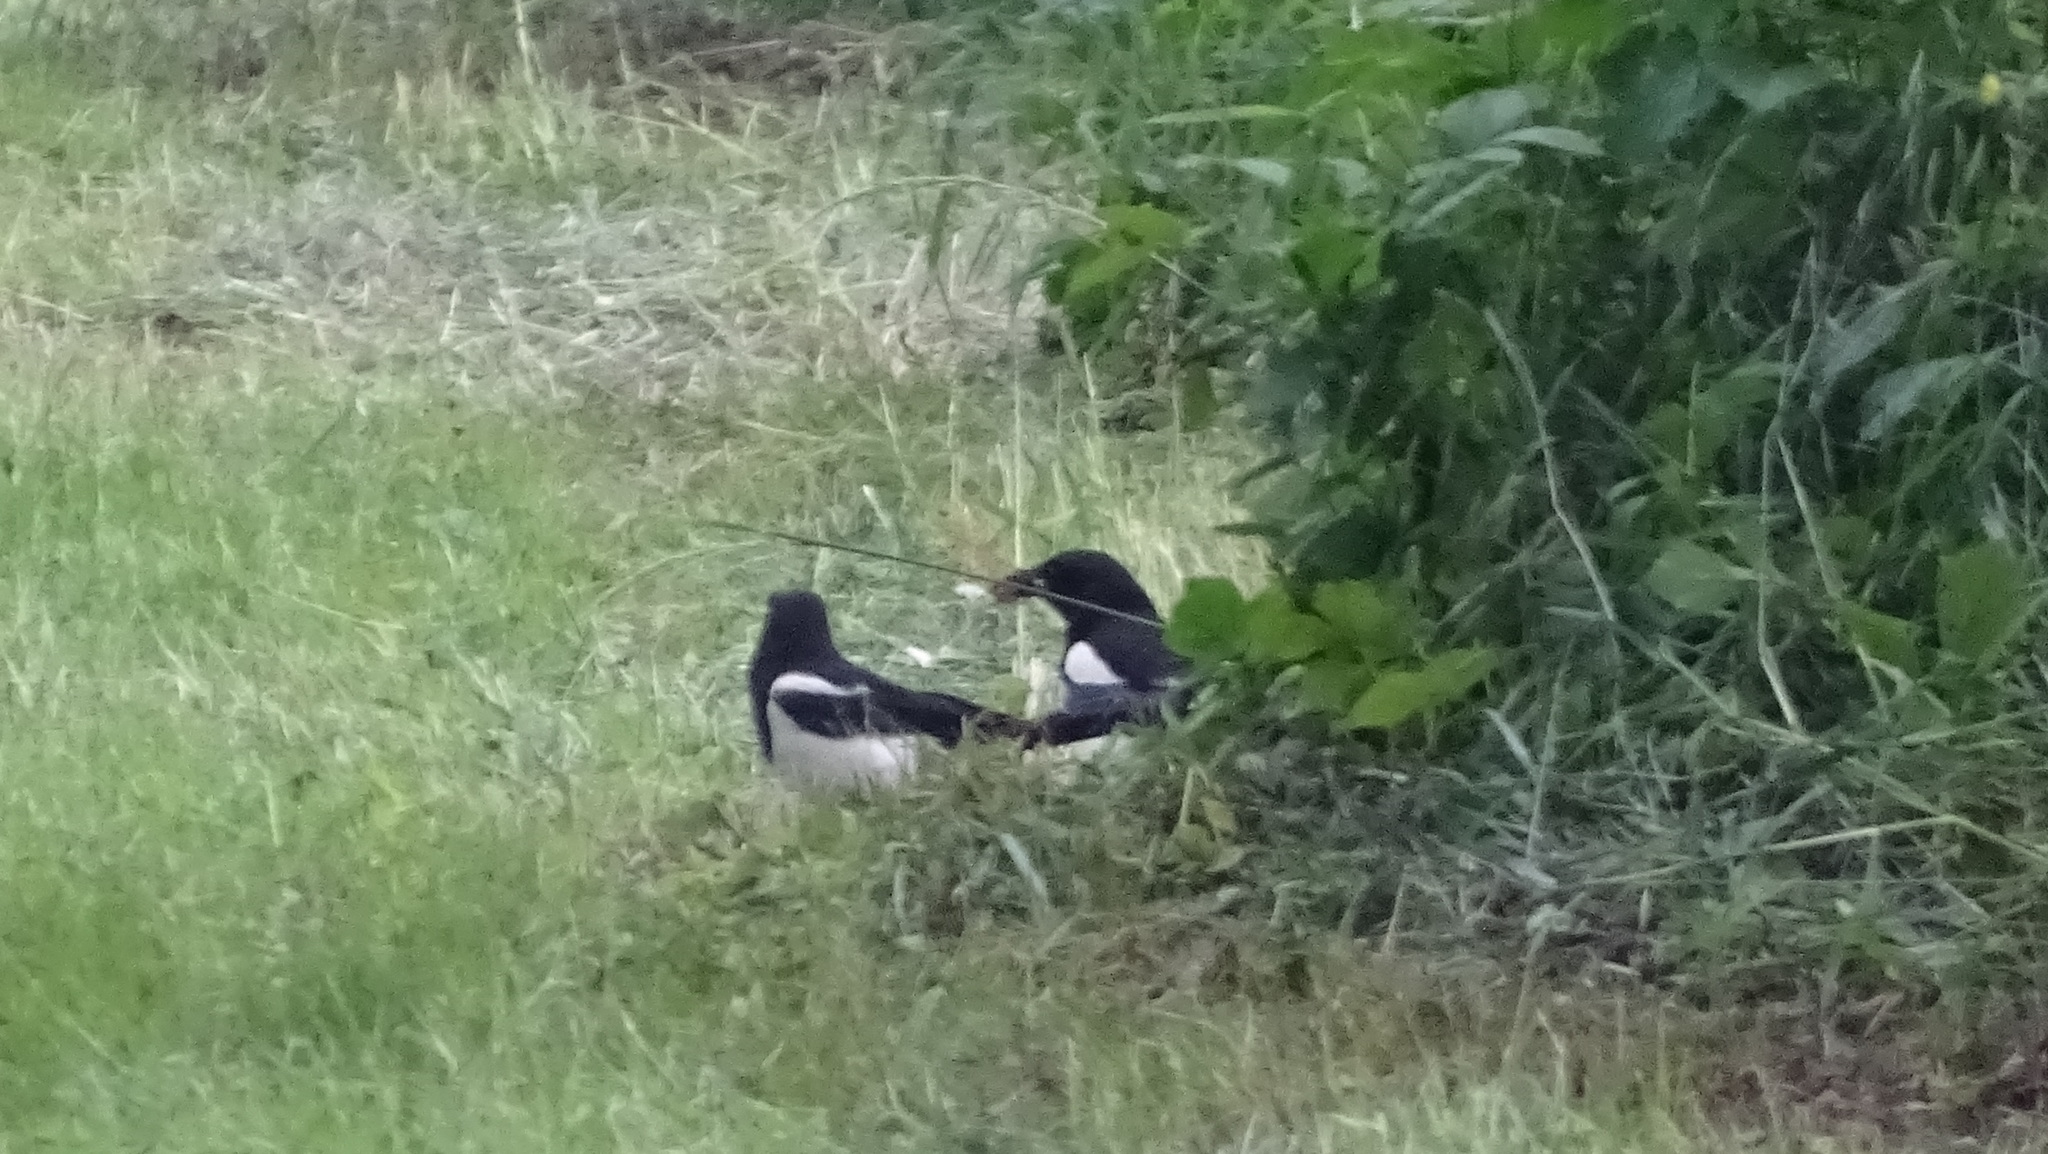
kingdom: Animalia
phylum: Chordata
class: Aves
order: Passeriformes
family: Corvidae
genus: Pica
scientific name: Pica pica
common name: Eurasian magpie
